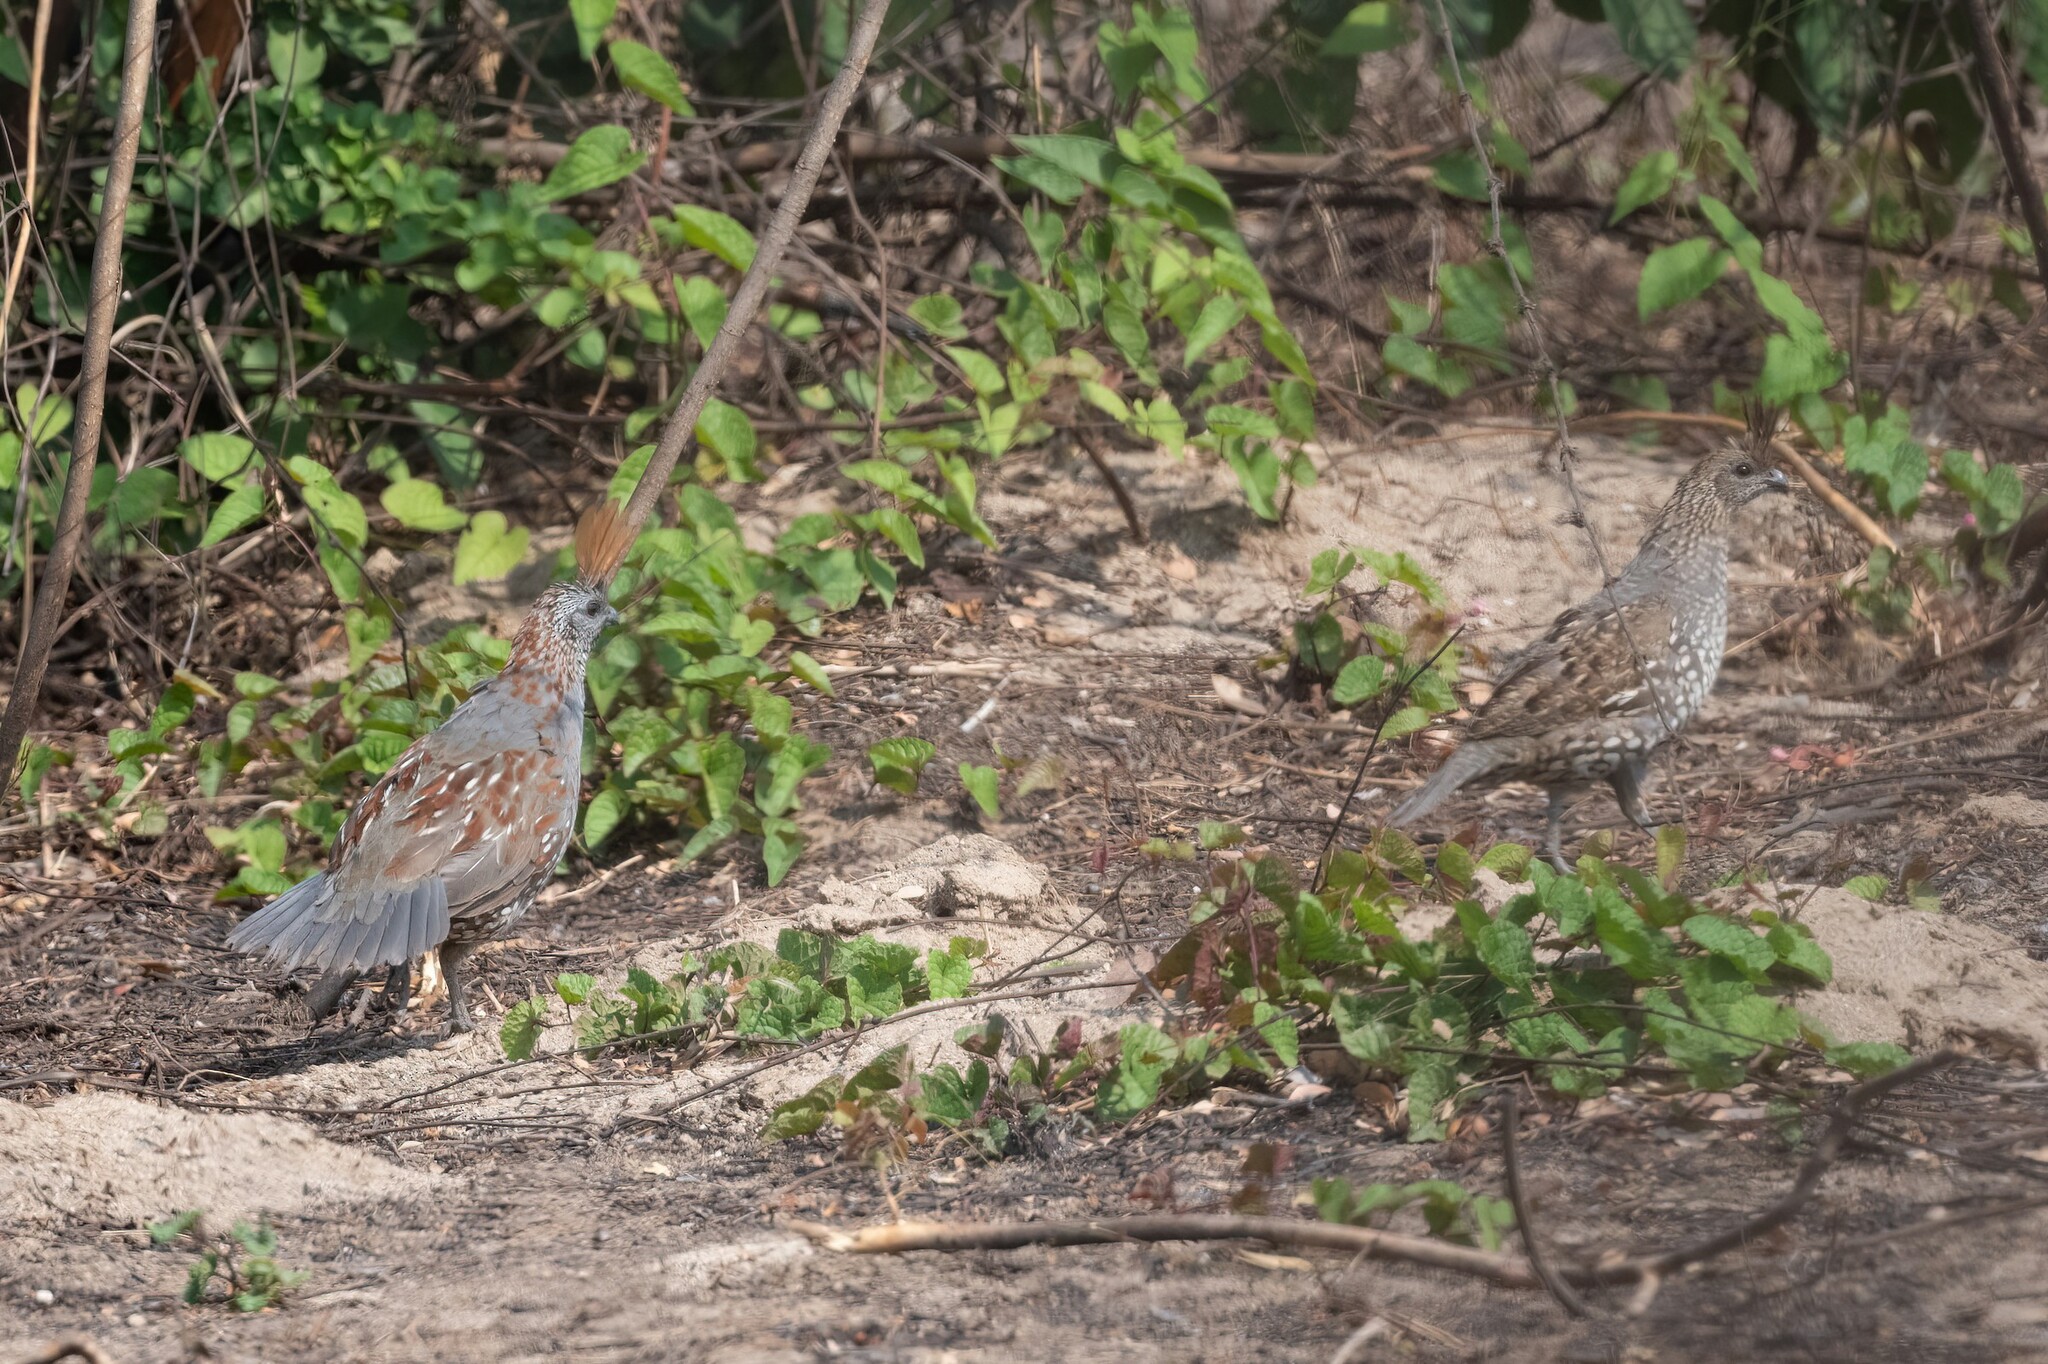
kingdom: Animalia
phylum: Chordata
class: Aves
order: Galliformes
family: Odontophoridae
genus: Callipepla
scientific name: Callipepla douglasii
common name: Elegant quail
